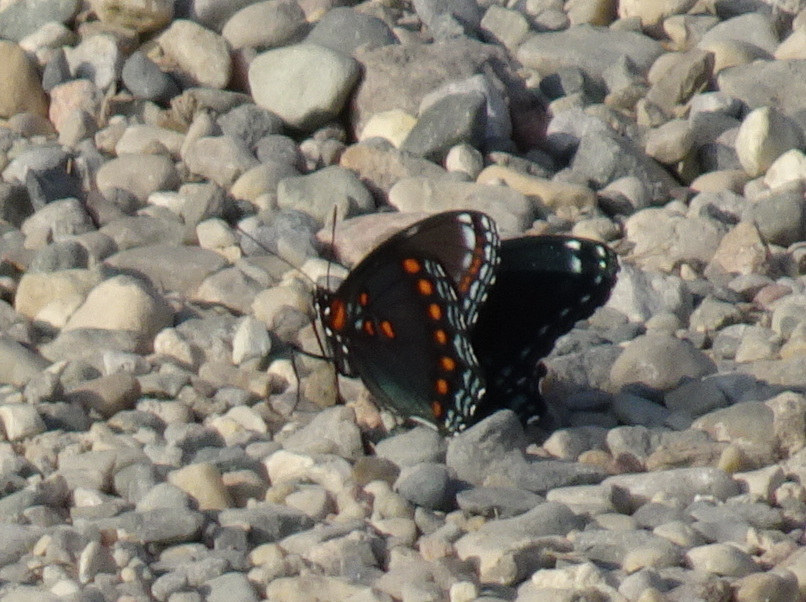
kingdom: Animalia
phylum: Arthropoda
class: Insecta
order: Lepidoptera
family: Nymphalidae
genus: Limenitis
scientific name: Limenitis arthemis
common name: Red-spotted admiral
